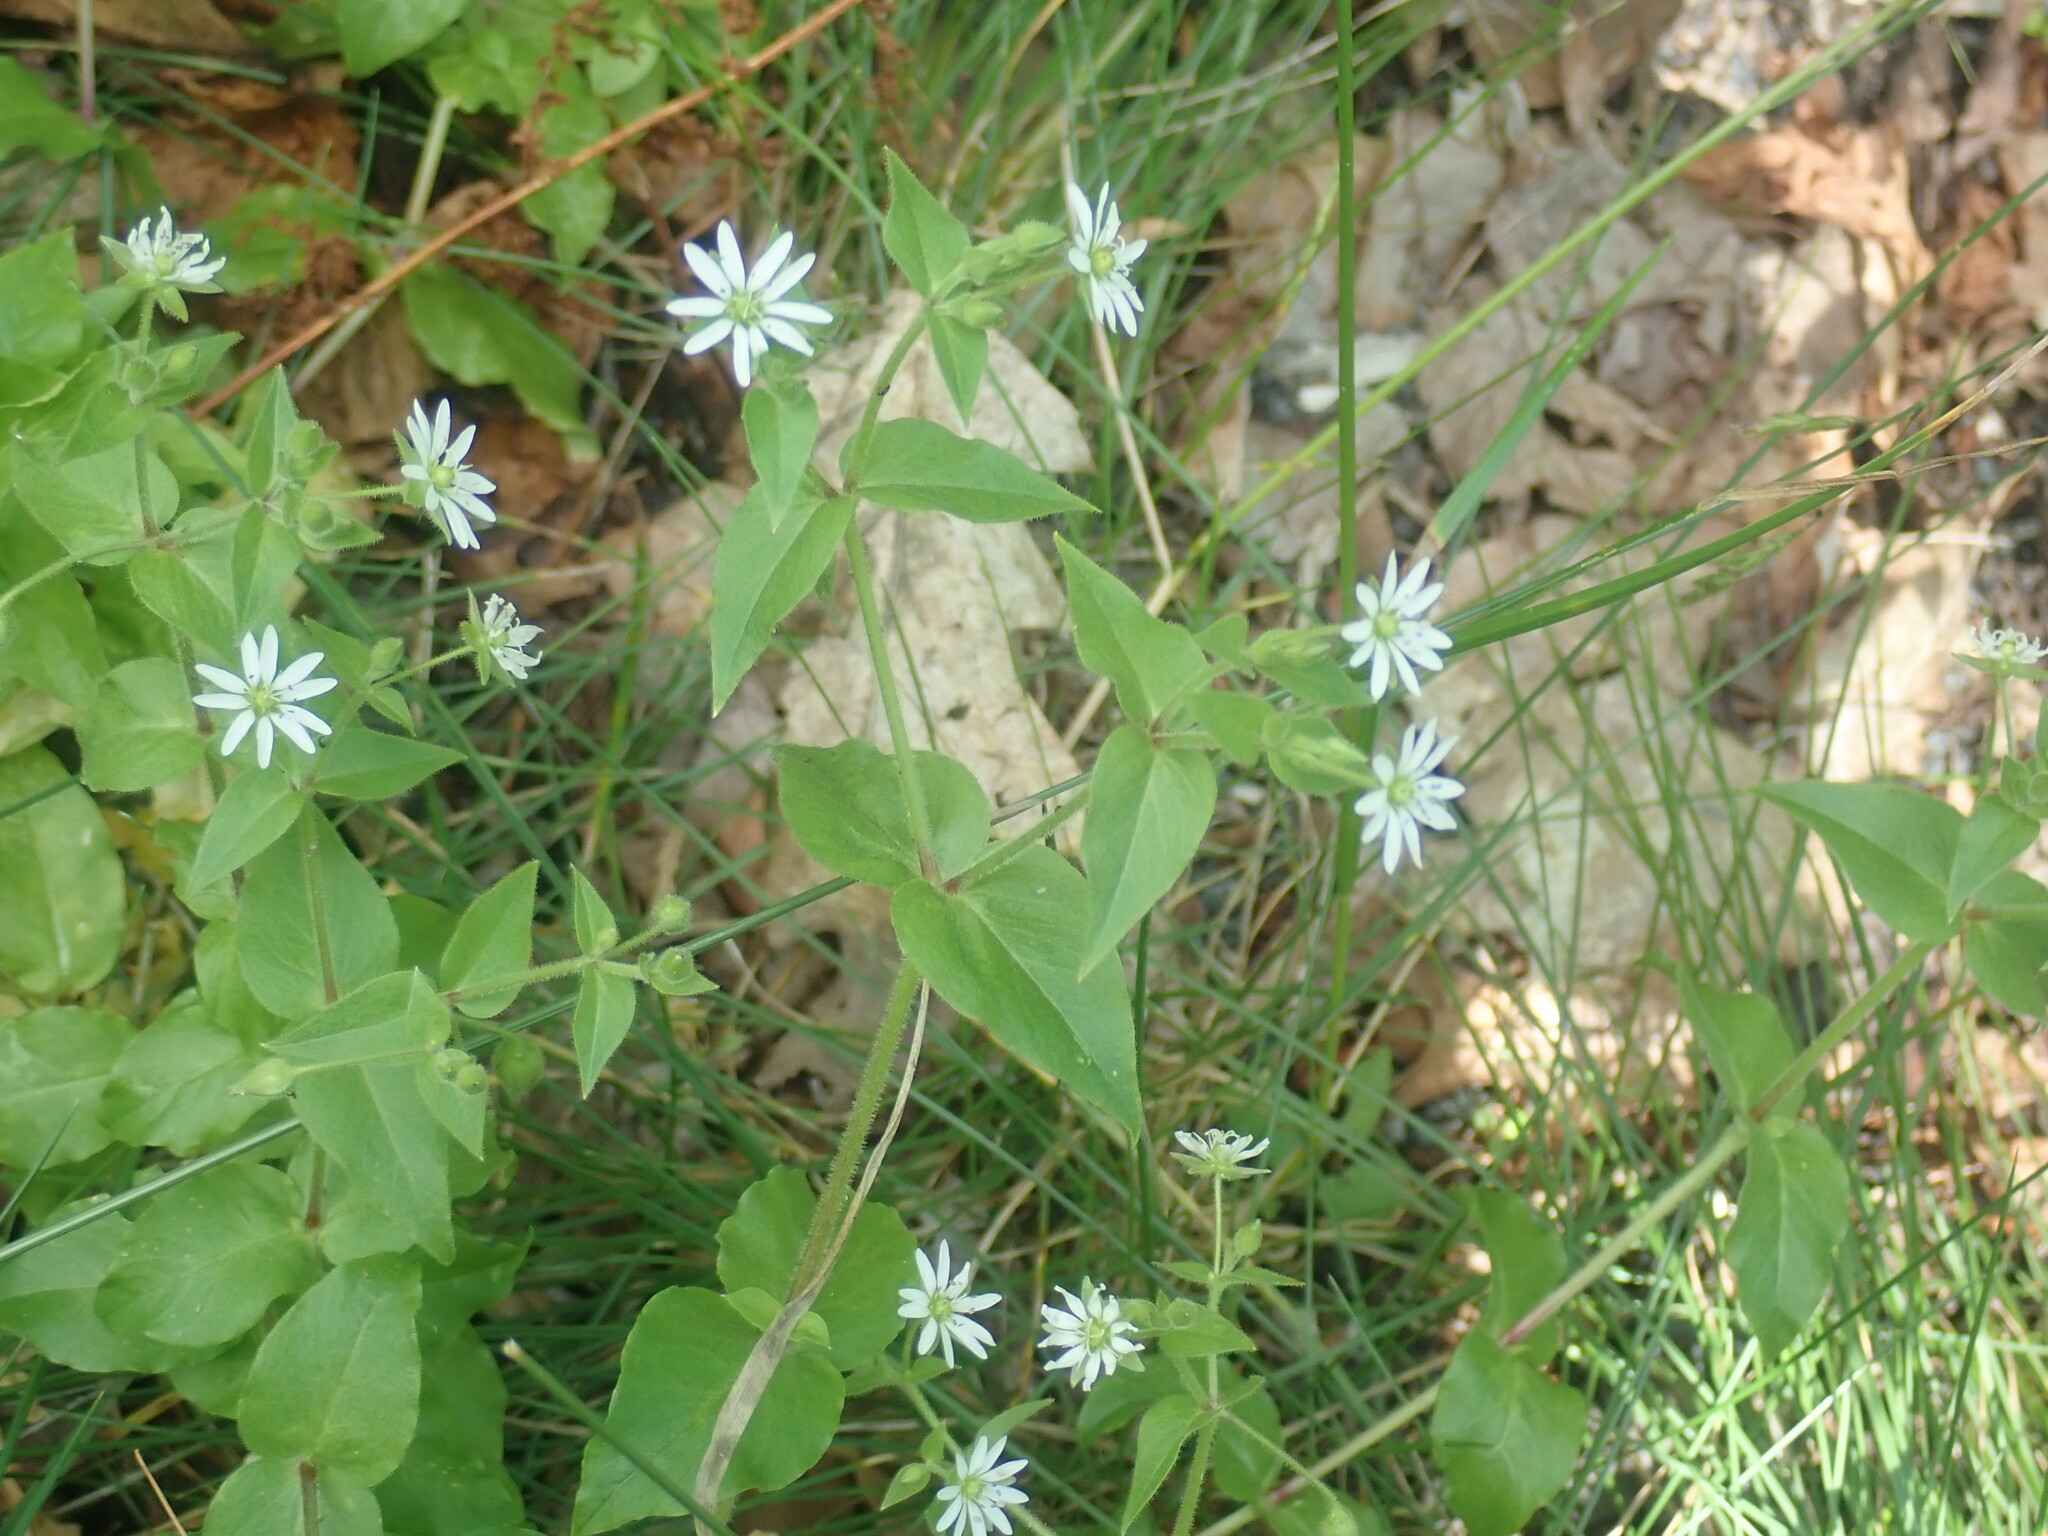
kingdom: Plantae
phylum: Tracheophyta
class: Magnoliopsida
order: Caryophyllales
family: Caryophyllaceae
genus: Stellaria
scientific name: Stellaria aquatica
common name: Water chickweed
